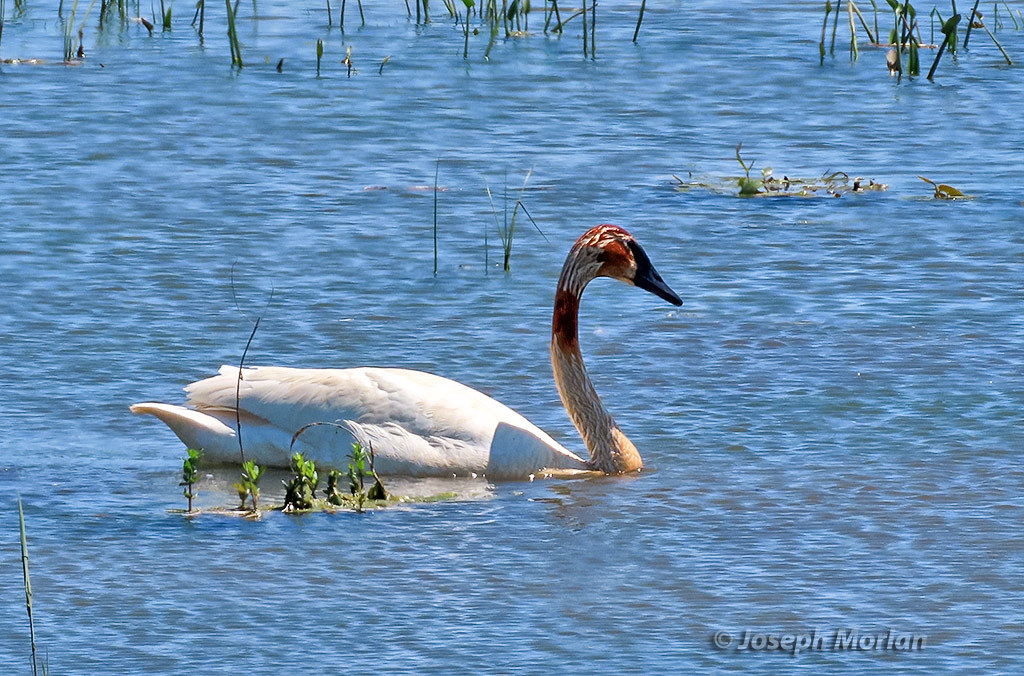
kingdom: Animalia
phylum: Chordata
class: Aves
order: Anseriformes
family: Anatidae
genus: Cygnus
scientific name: Cygnus buccinator
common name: Trumpeter swan
